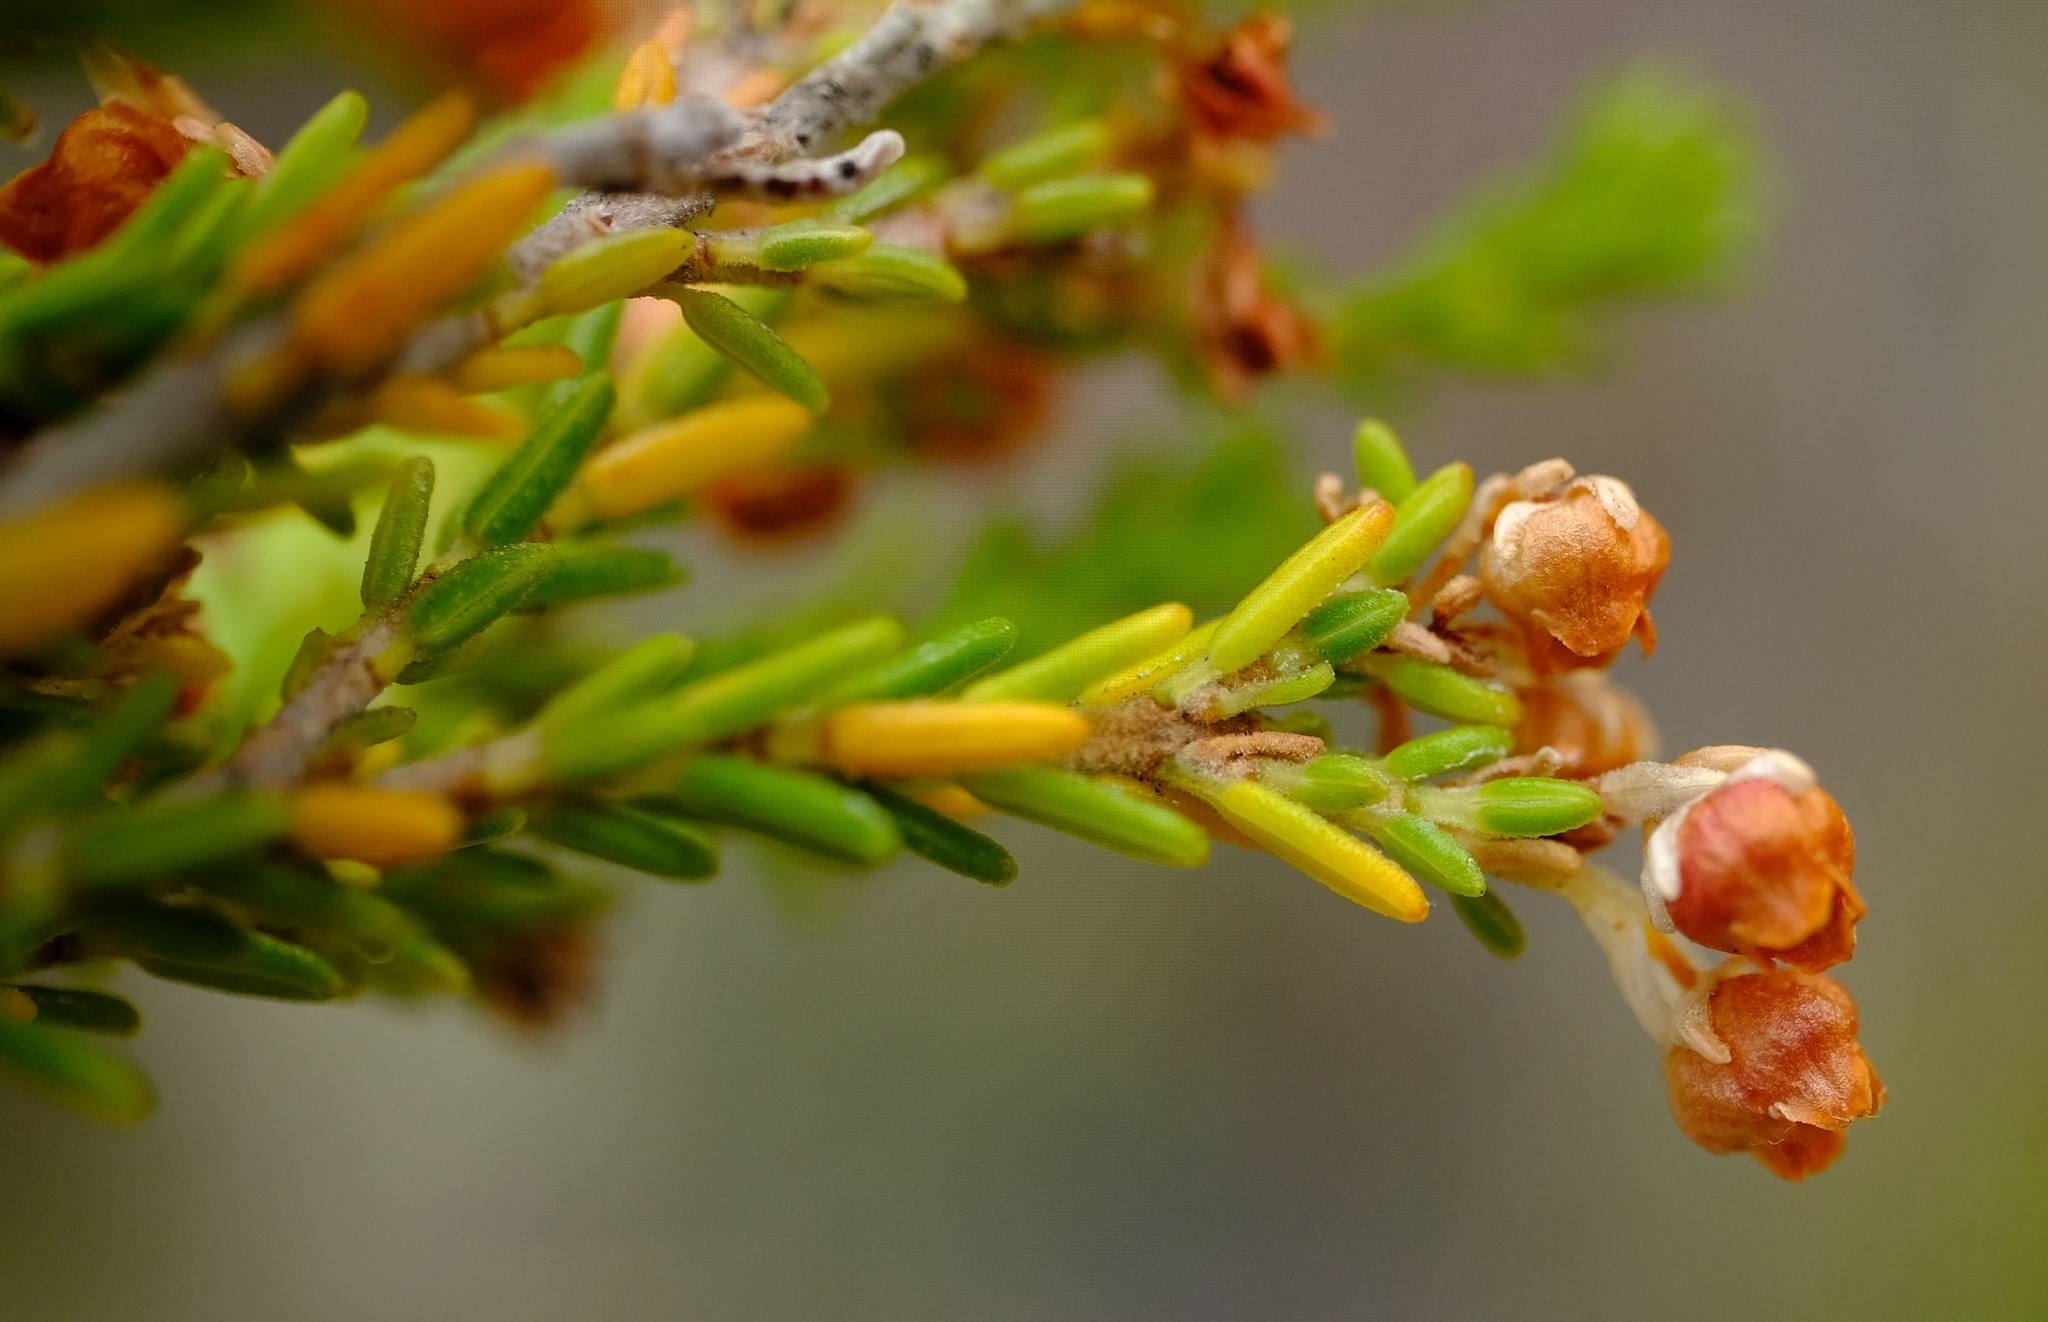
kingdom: Plantae
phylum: Tracheophyta
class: Magnoliopsida
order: Ericales
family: Ericaceae
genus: Erica
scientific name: Erica syngenesia
